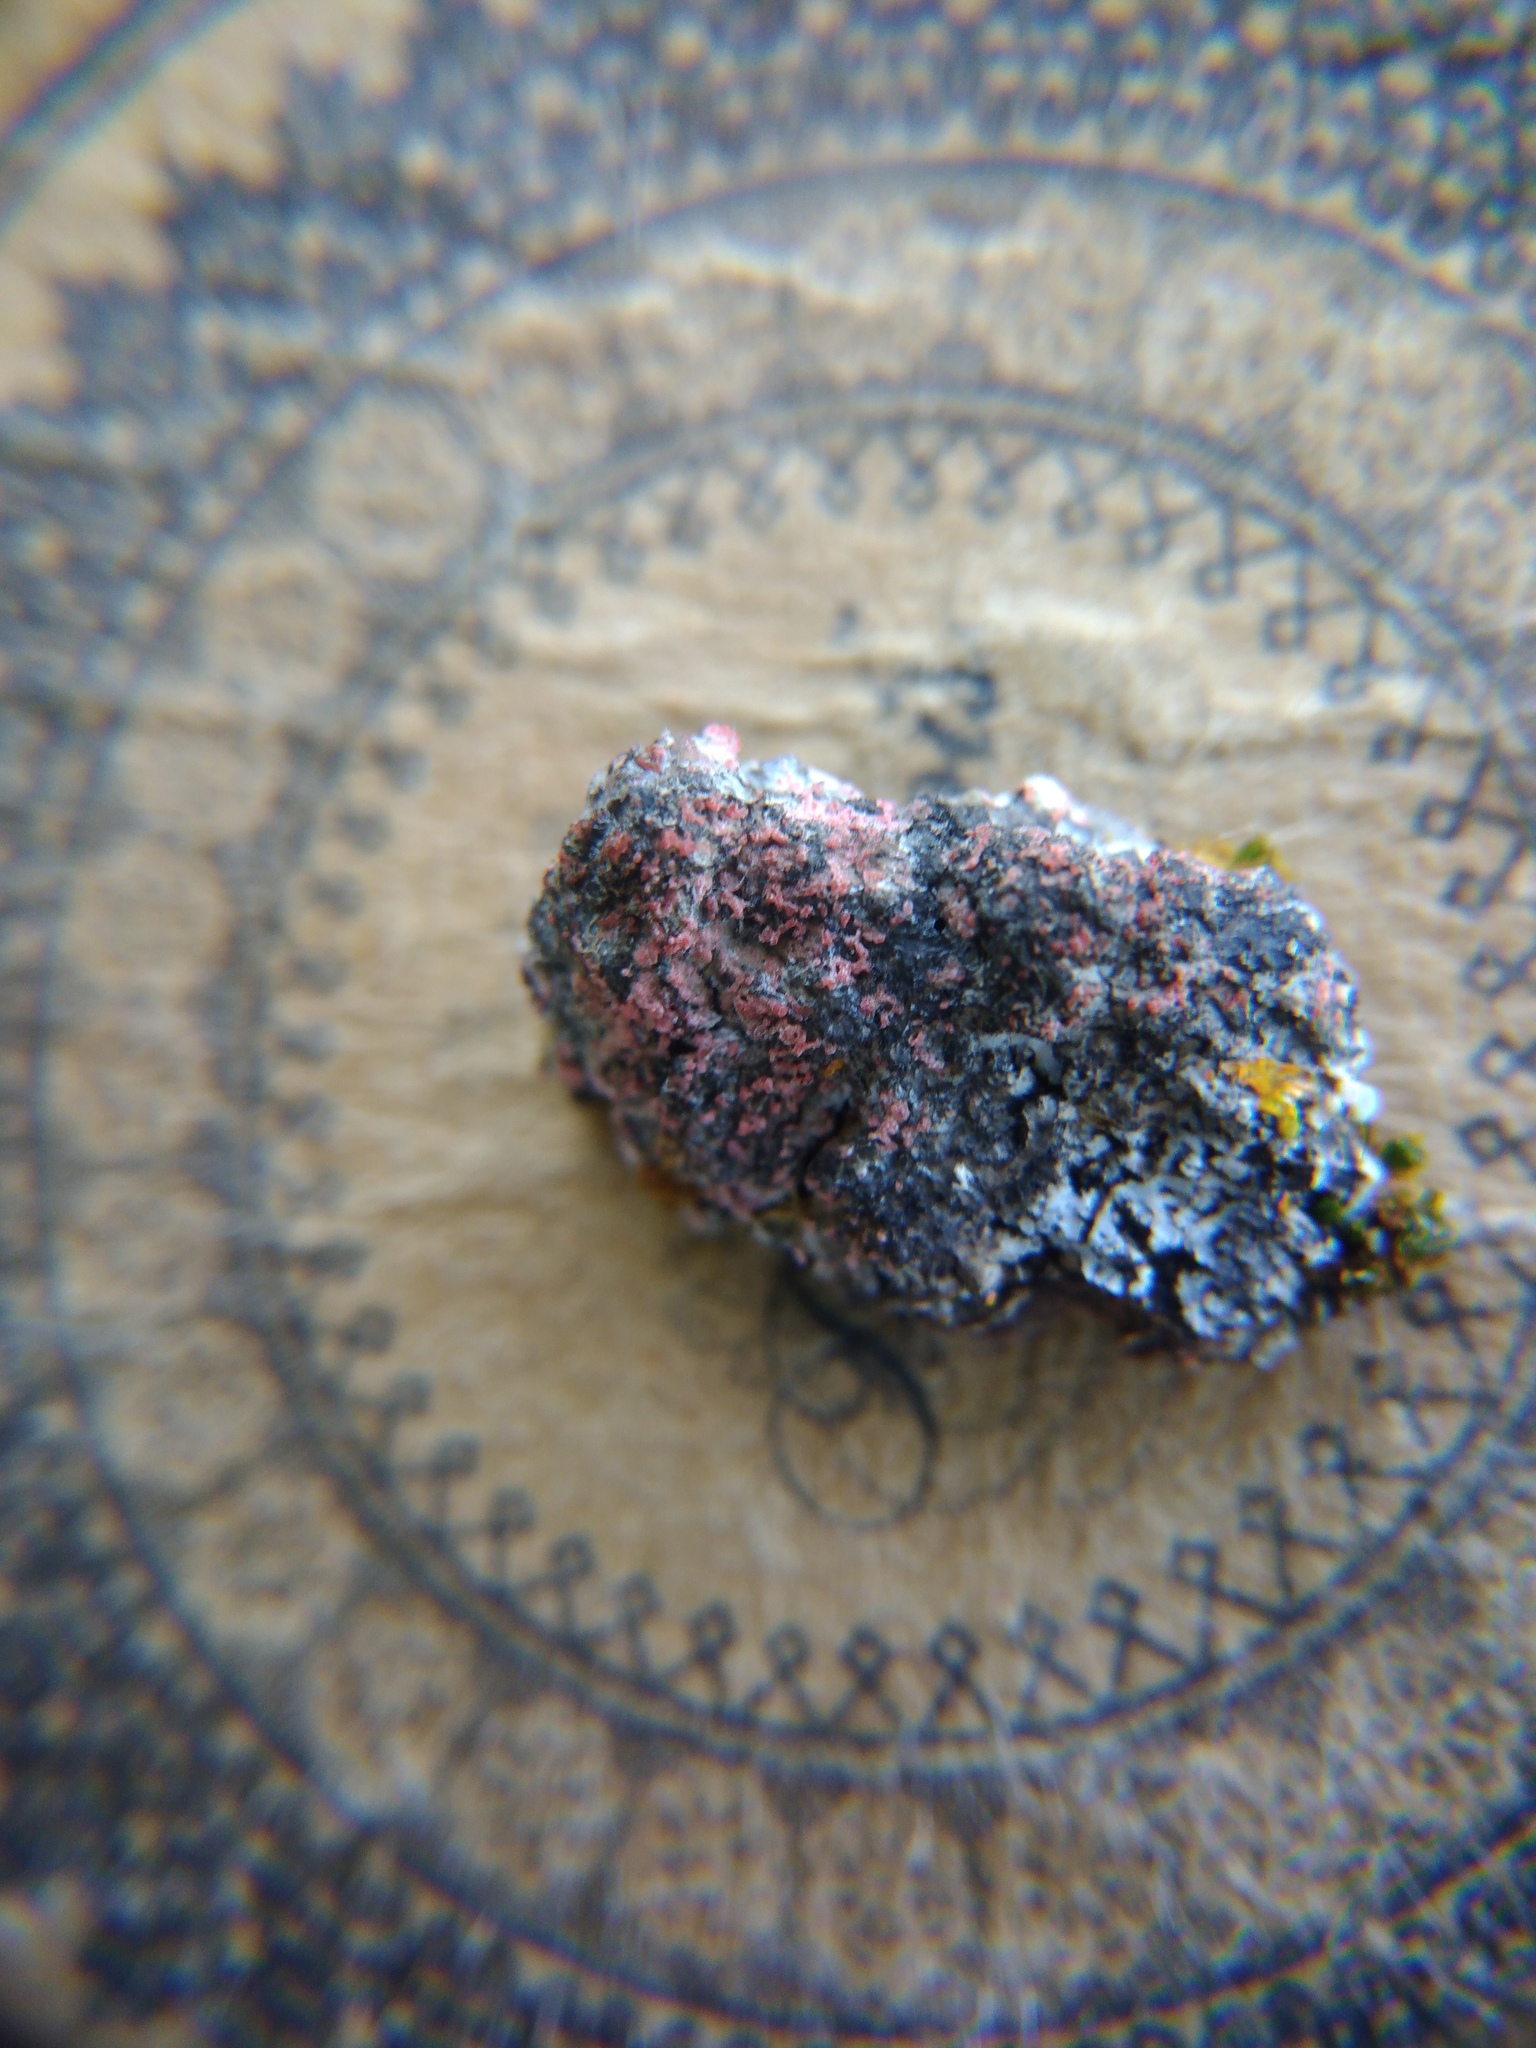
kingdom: Fungi
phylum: Basidiomycota
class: Agaricomycetes
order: Corticiales
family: Corticiaceae
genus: Marchandiomyces
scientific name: Marchandiomyces corallinus
